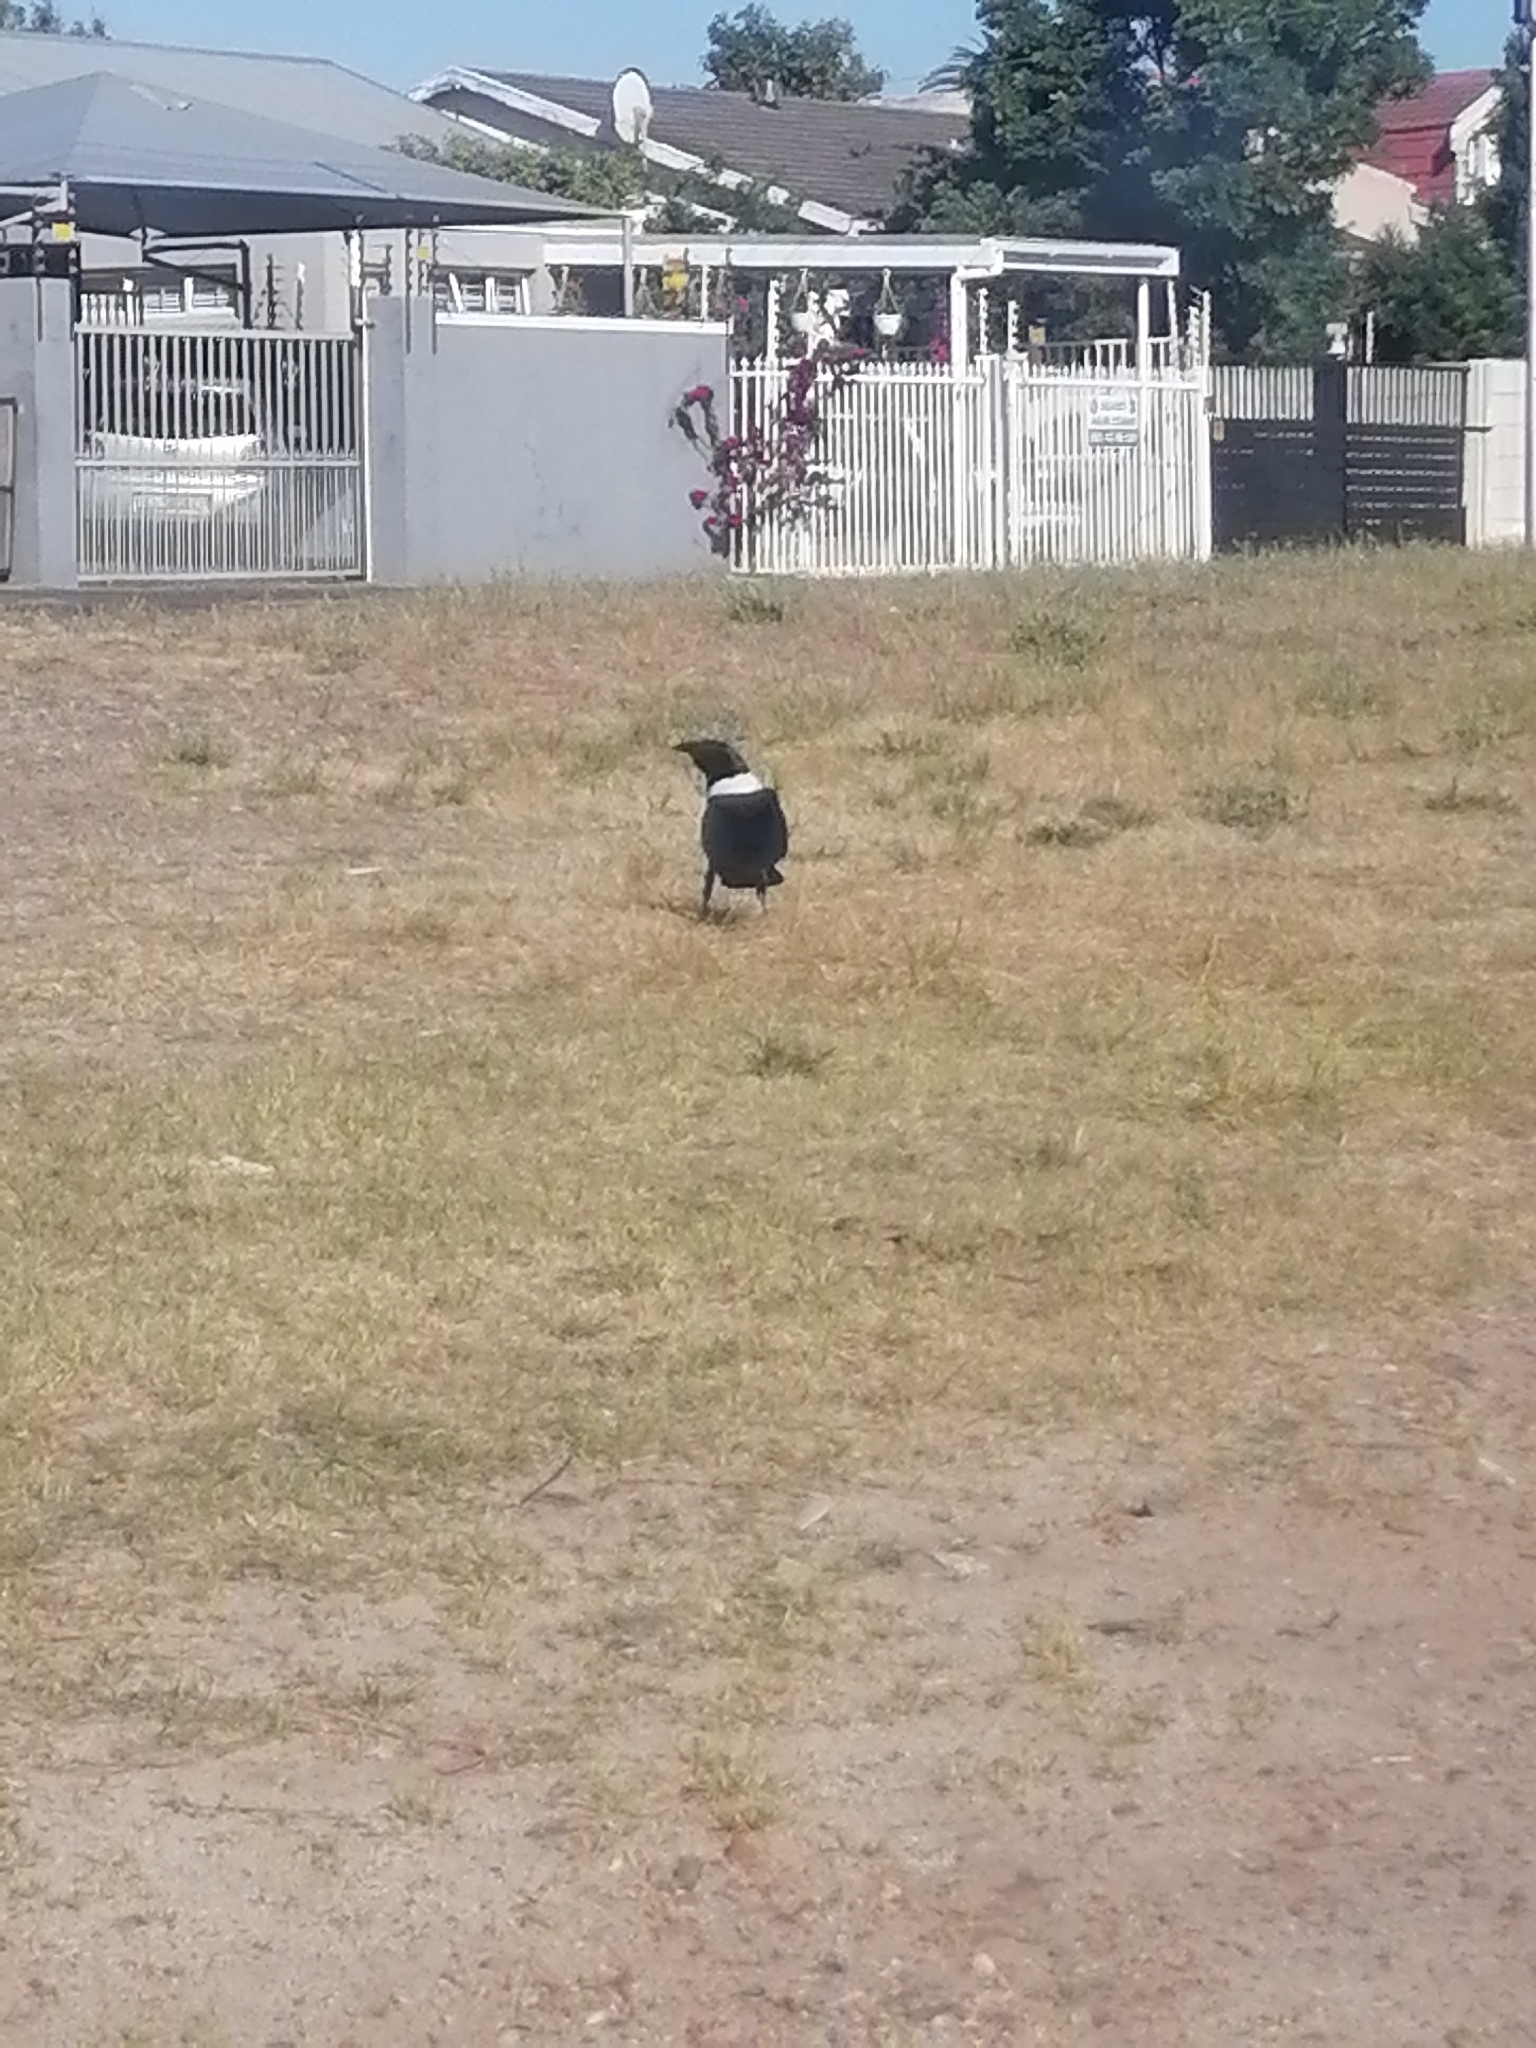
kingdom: Animalia
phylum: Chordata
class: Aves
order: Passeriformes
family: Corvidae
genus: Corvus
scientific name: Corvus albus
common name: Pied crow
